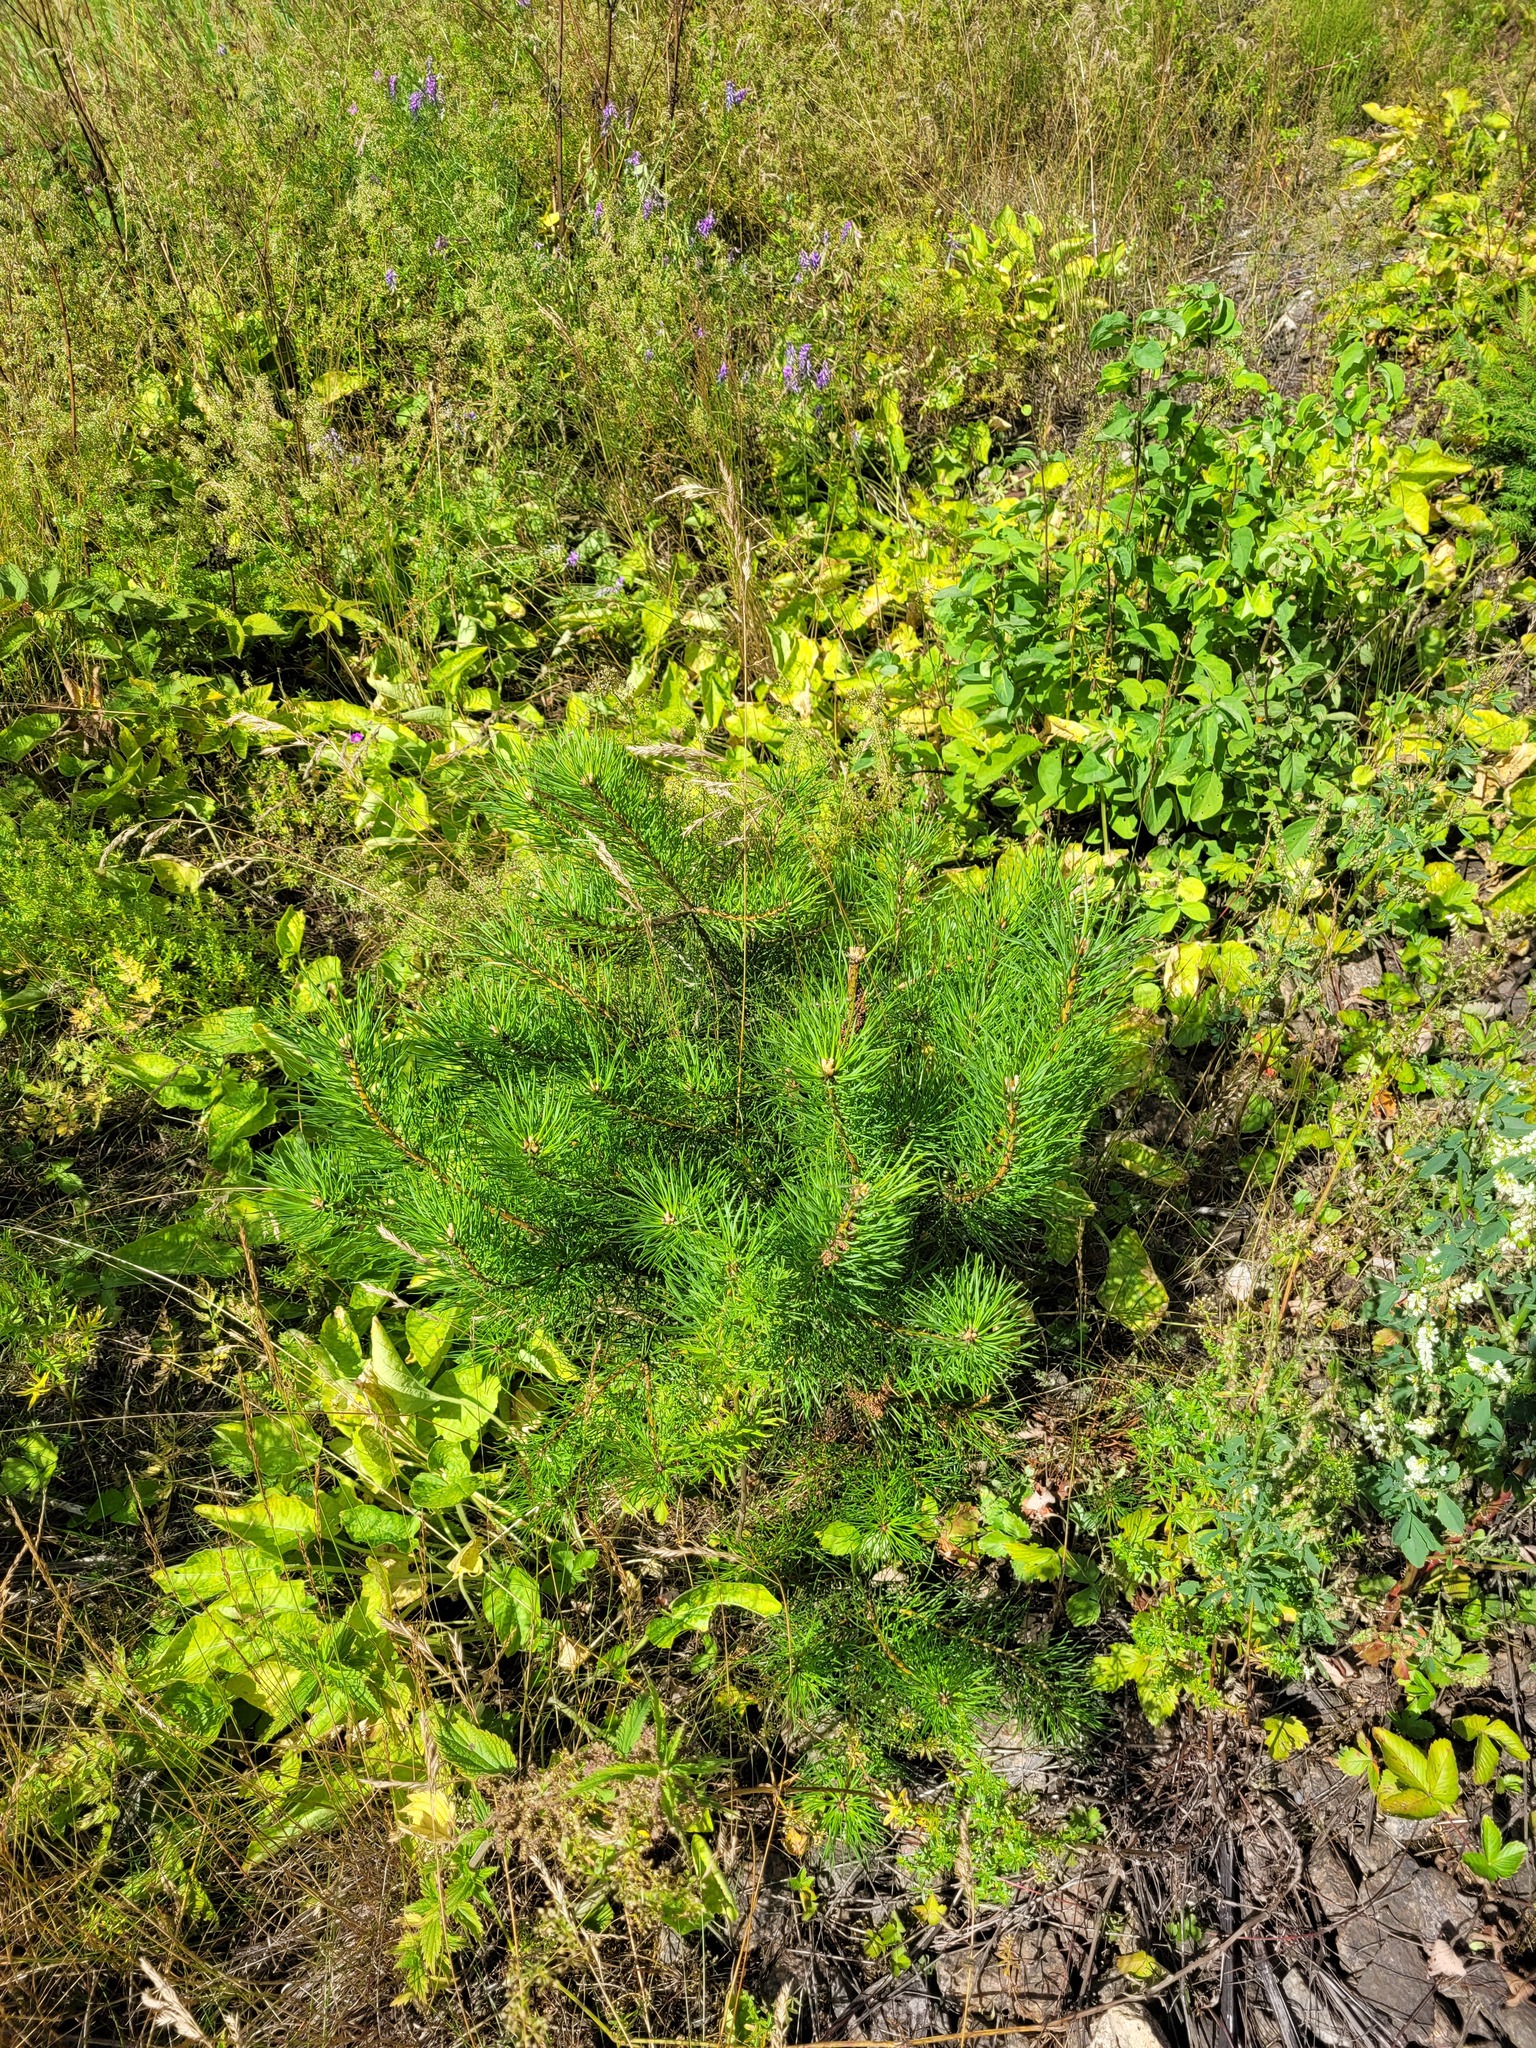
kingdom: Plantae
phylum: Tracheophyta
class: Pinopsida
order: Pinales
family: Pinaceae
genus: Pinus
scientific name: Pinus sylvestris
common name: Scots pine
